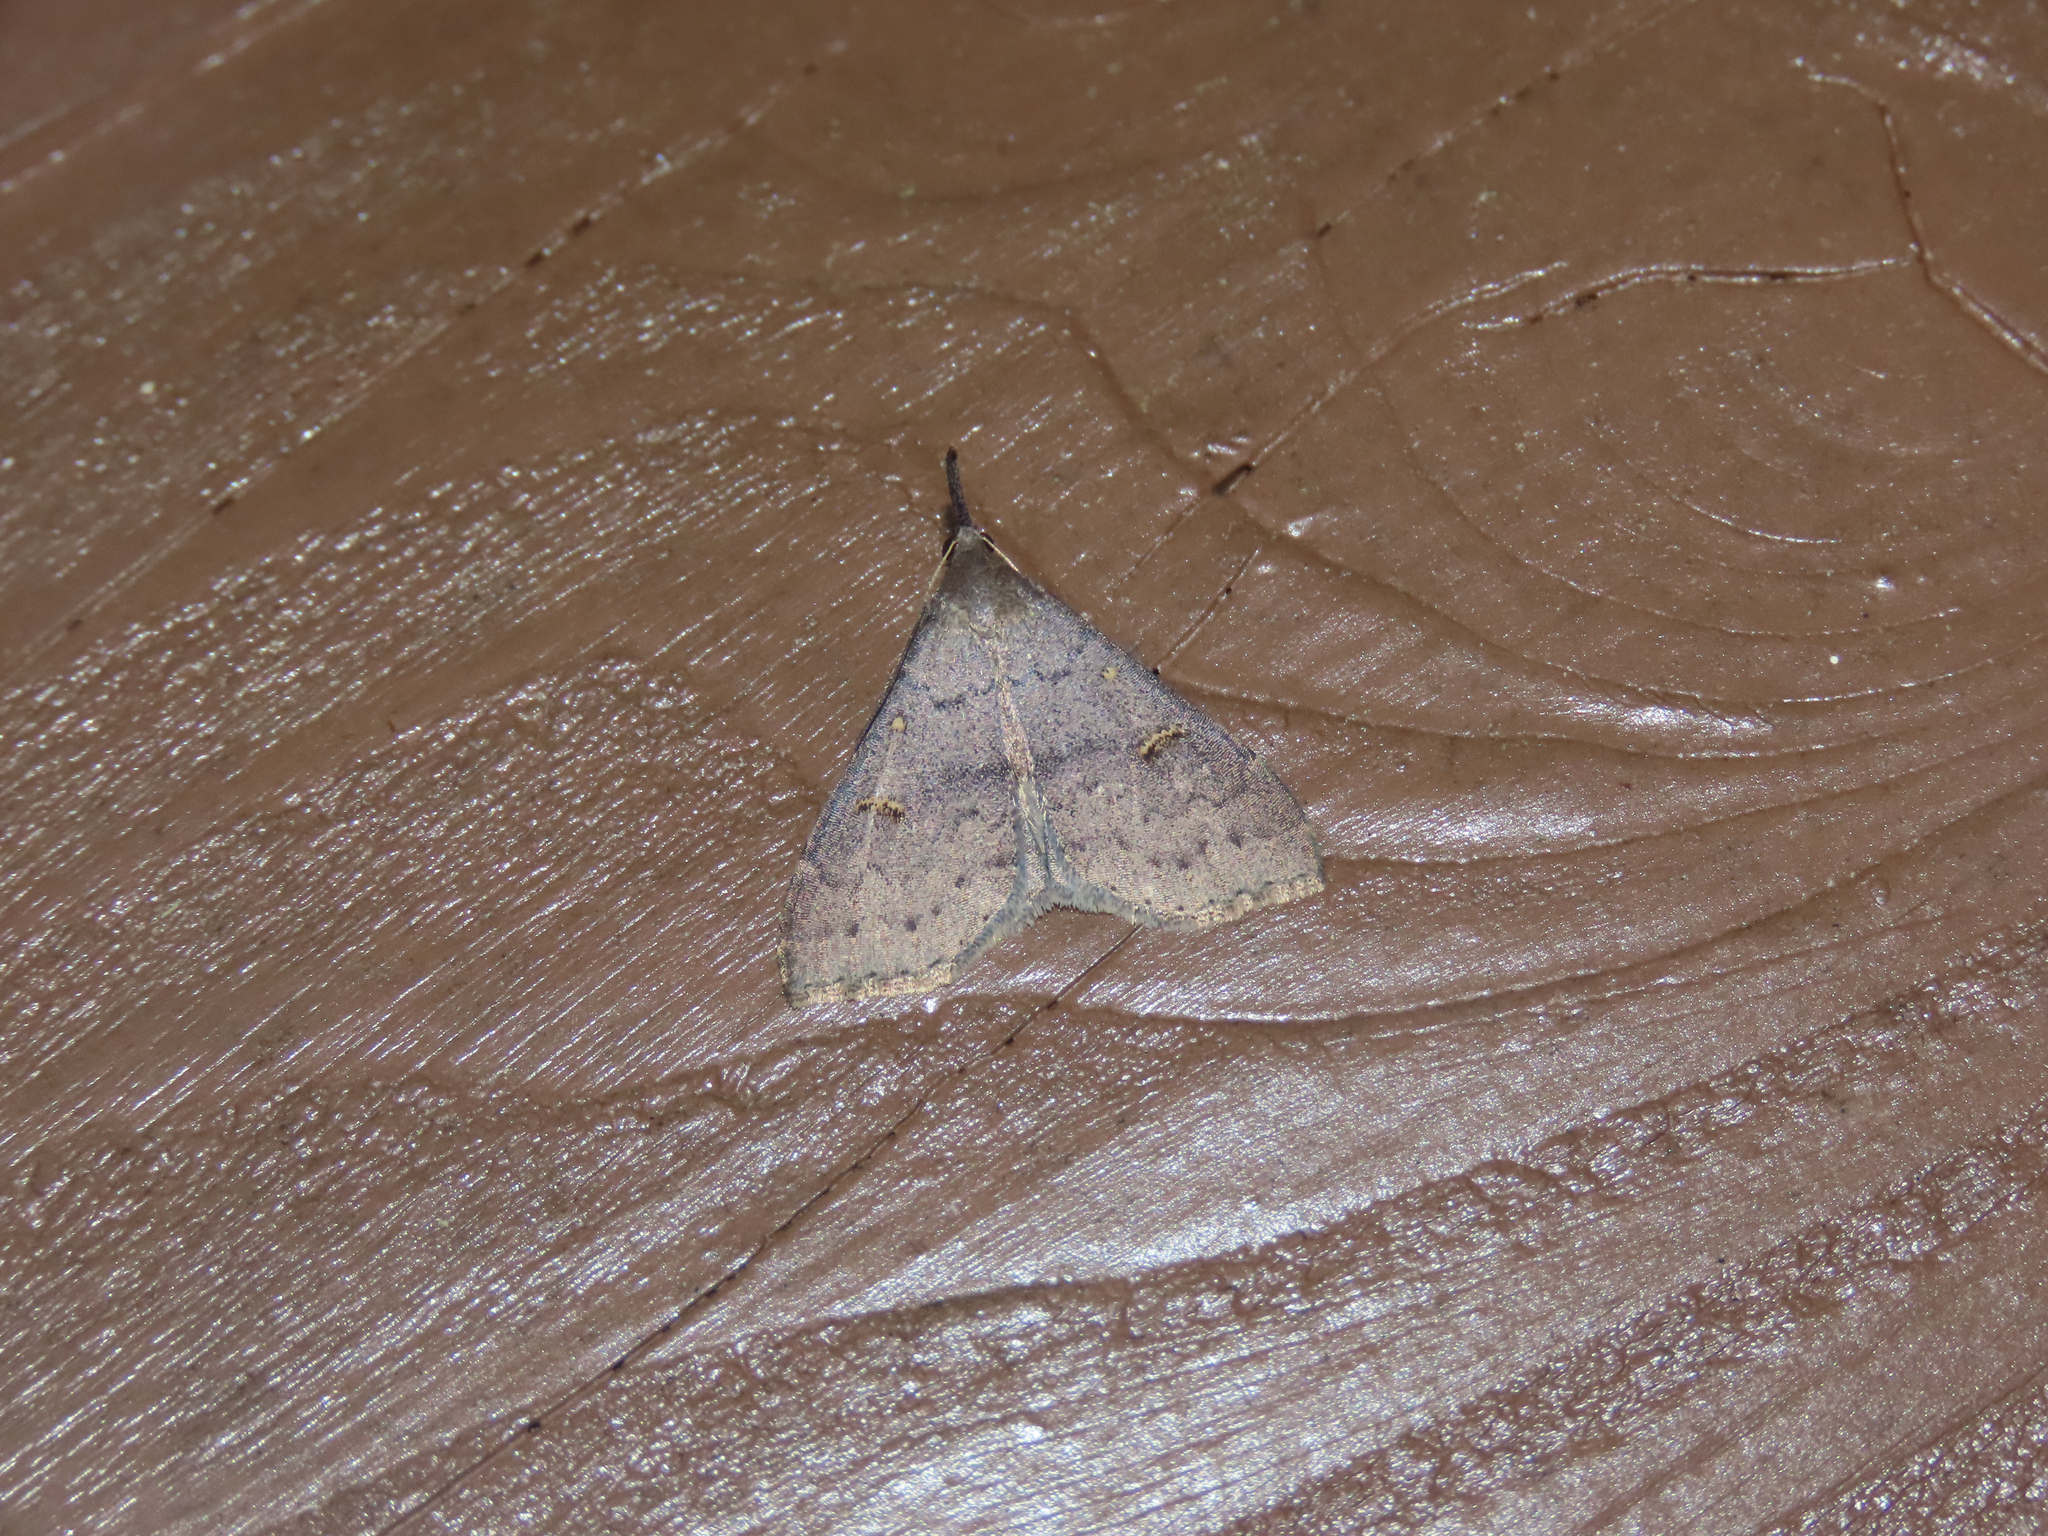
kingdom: Animalia
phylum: Arthropoda
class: Insecta
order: Lepidoptera
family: Erebidae
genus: Renia
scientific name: Renia adspergillus
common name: Speckled renia moth
